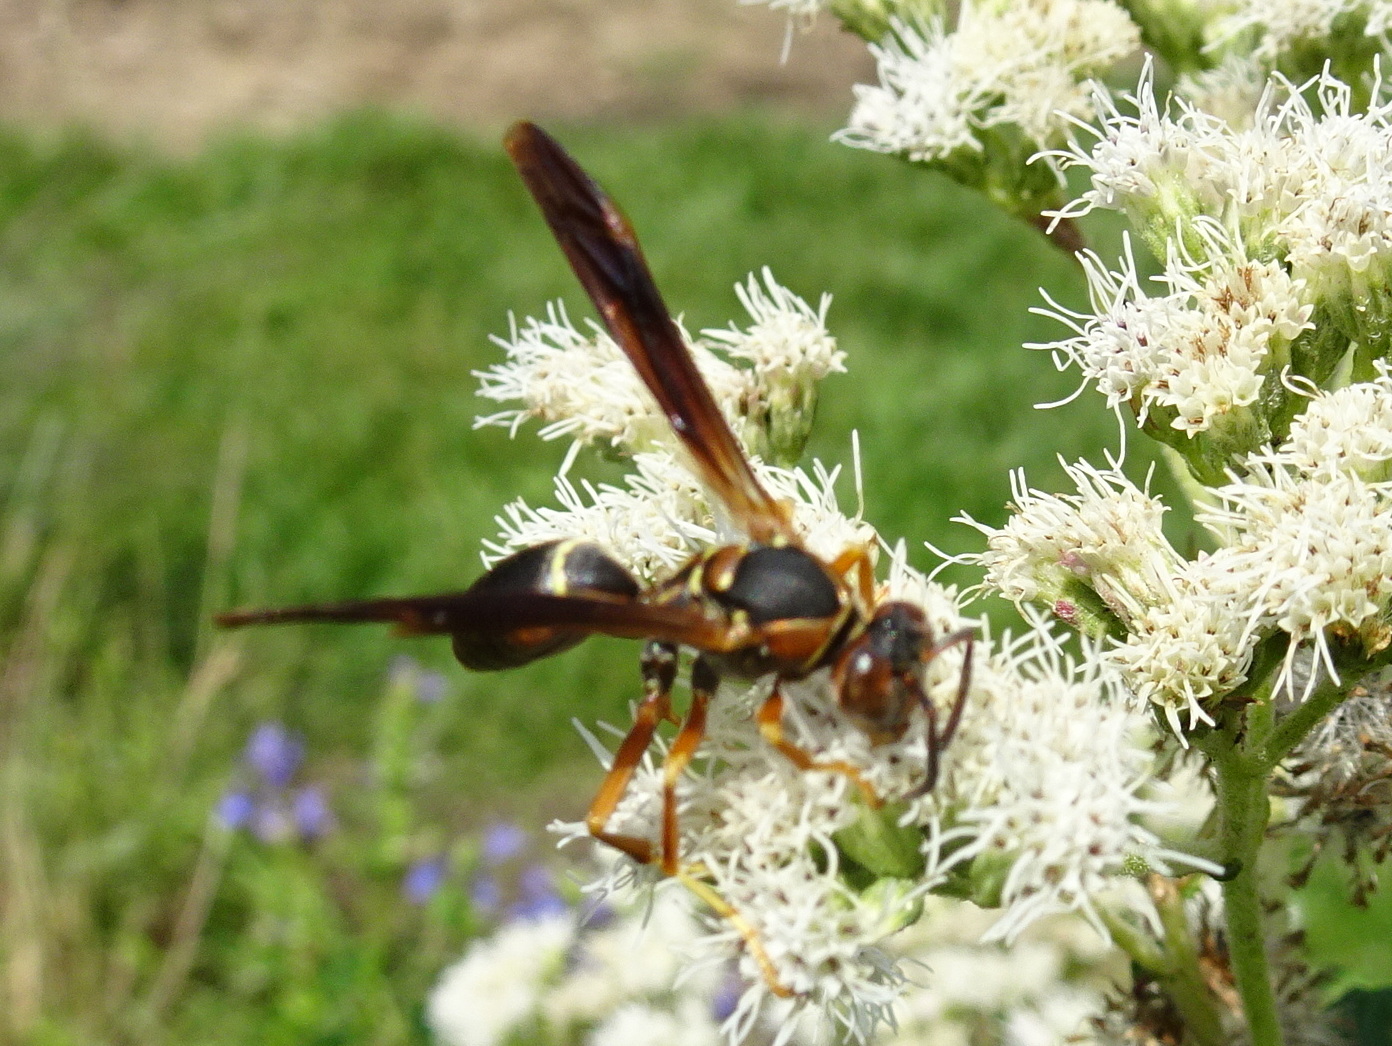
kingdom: Animalia
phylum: Arthropoda
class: Insecta
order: Hymenoptera
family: Eumenidae
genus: Polistes
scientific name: Polistes fuscatus
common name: Dark paper wasp
